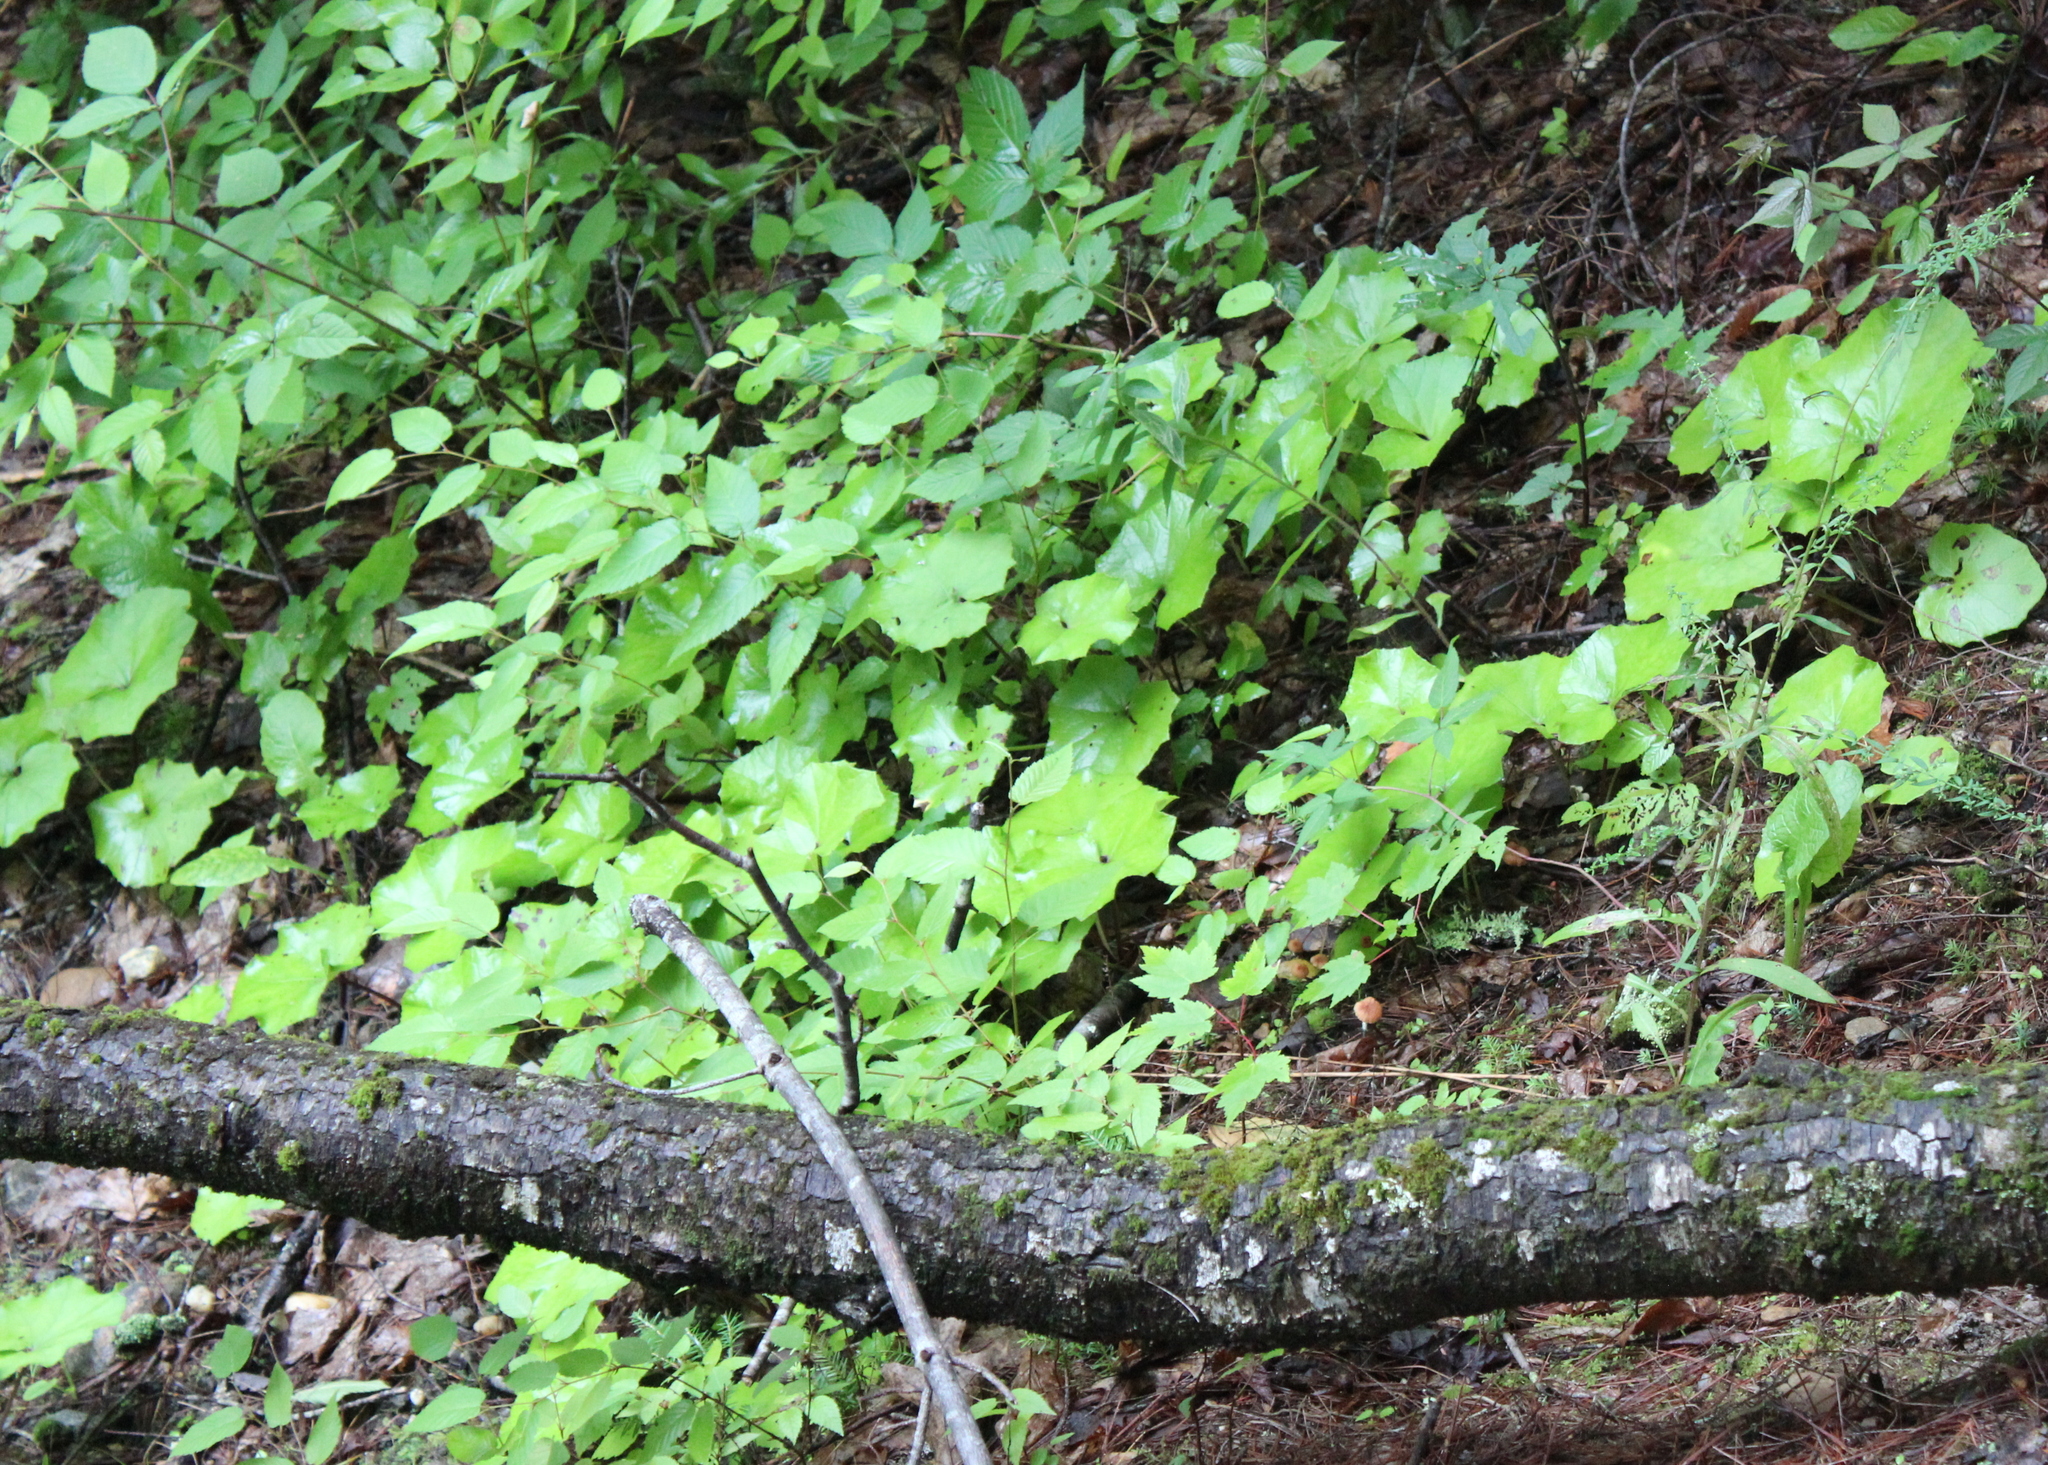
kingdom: Plantae
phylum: Tracheophyta
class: Magnoliopsida
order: Asterales
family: Asteraceae
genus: Tussilago
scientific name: Tussilago farfara
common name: Coltsfoot
